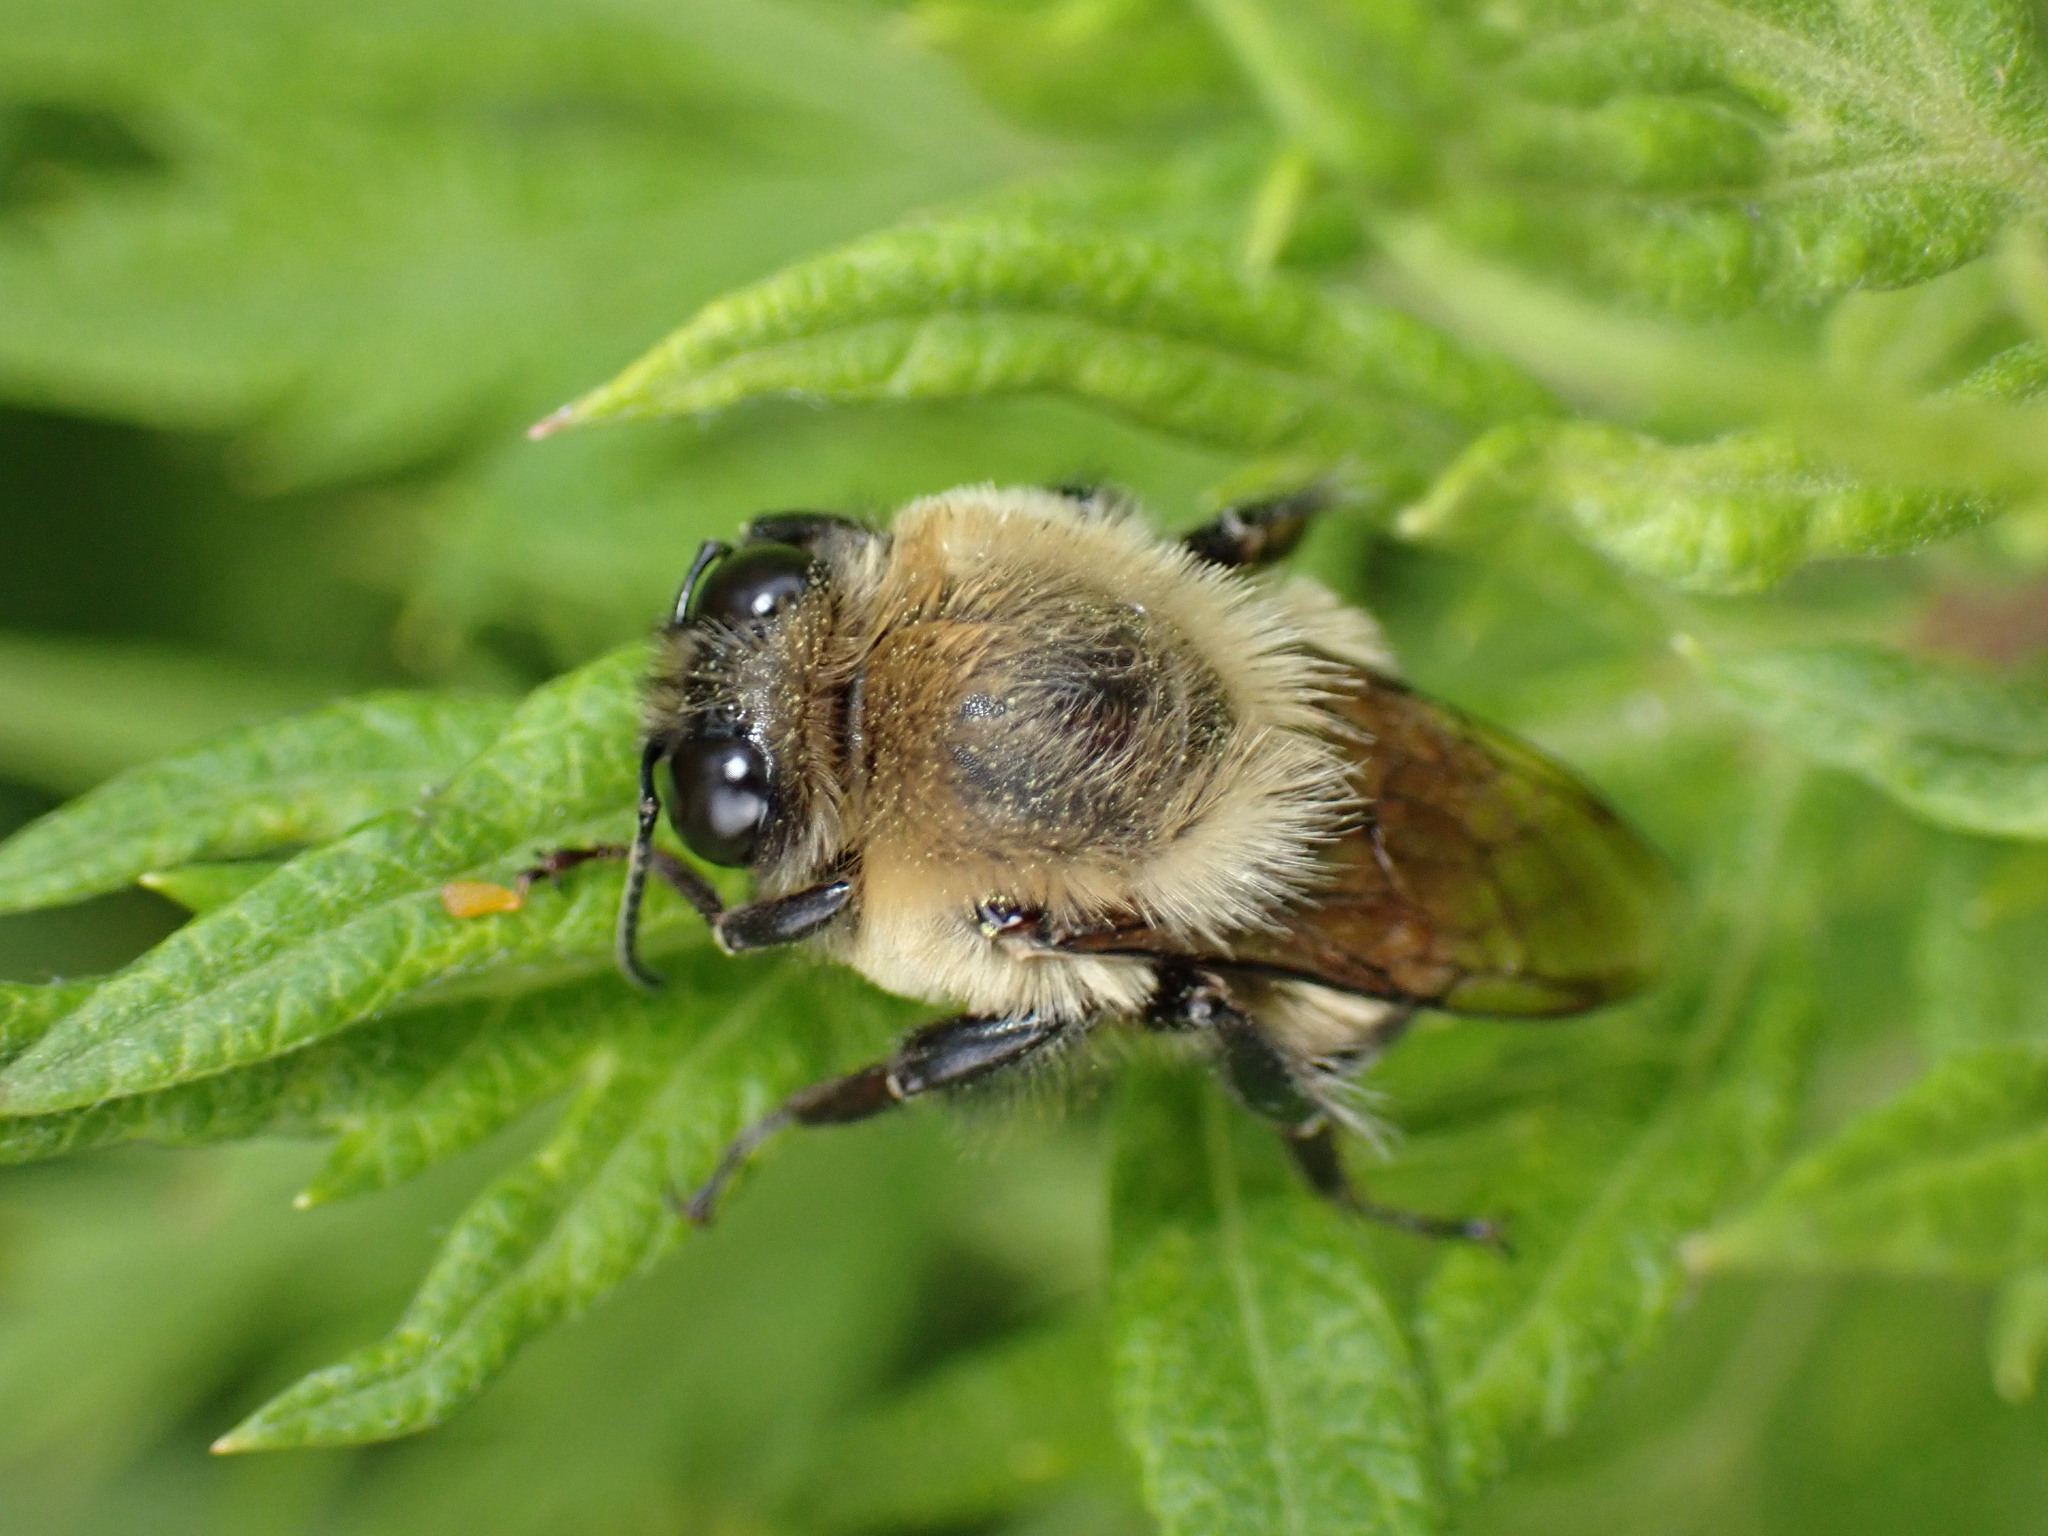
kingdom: Animalia
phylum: Arthropoda
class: Insecta
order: Hymenoptera
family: Apidae
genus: Bombus
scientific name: Bombus griseocollis
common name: Brown-belted bumble bee
